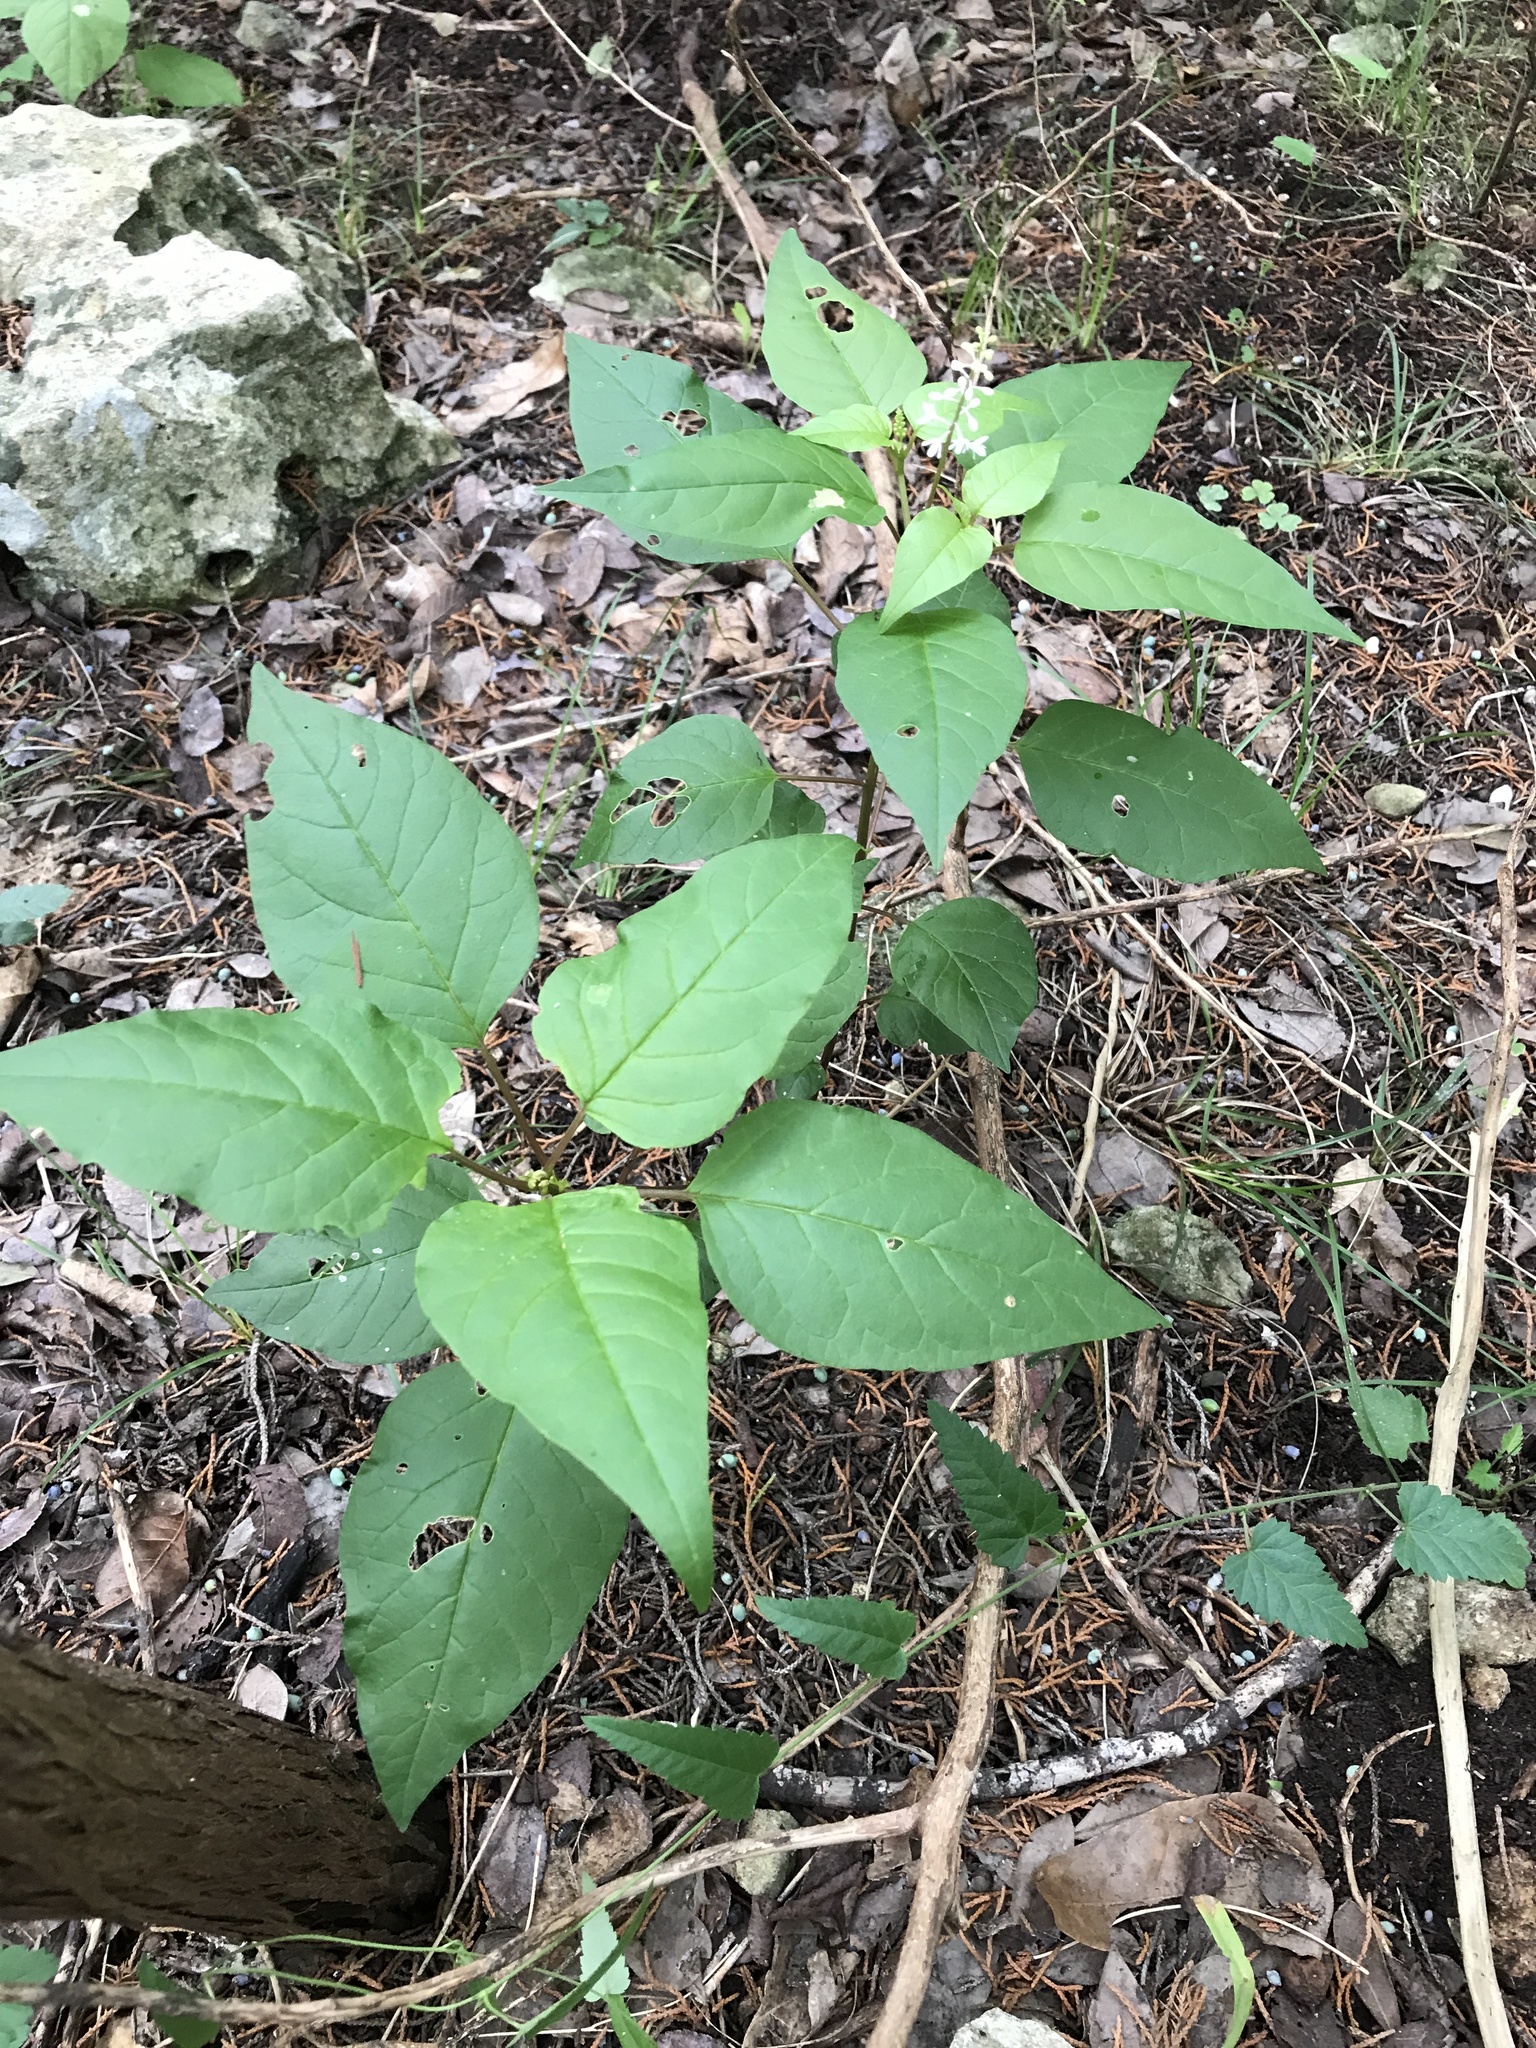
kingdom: Plantae
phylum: Tracheophyta
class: Magnoliopsida
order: Caryophyllales
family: Phytolaccaceae
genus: Rivina
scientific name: Rivina humilis
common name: Rougeplant
